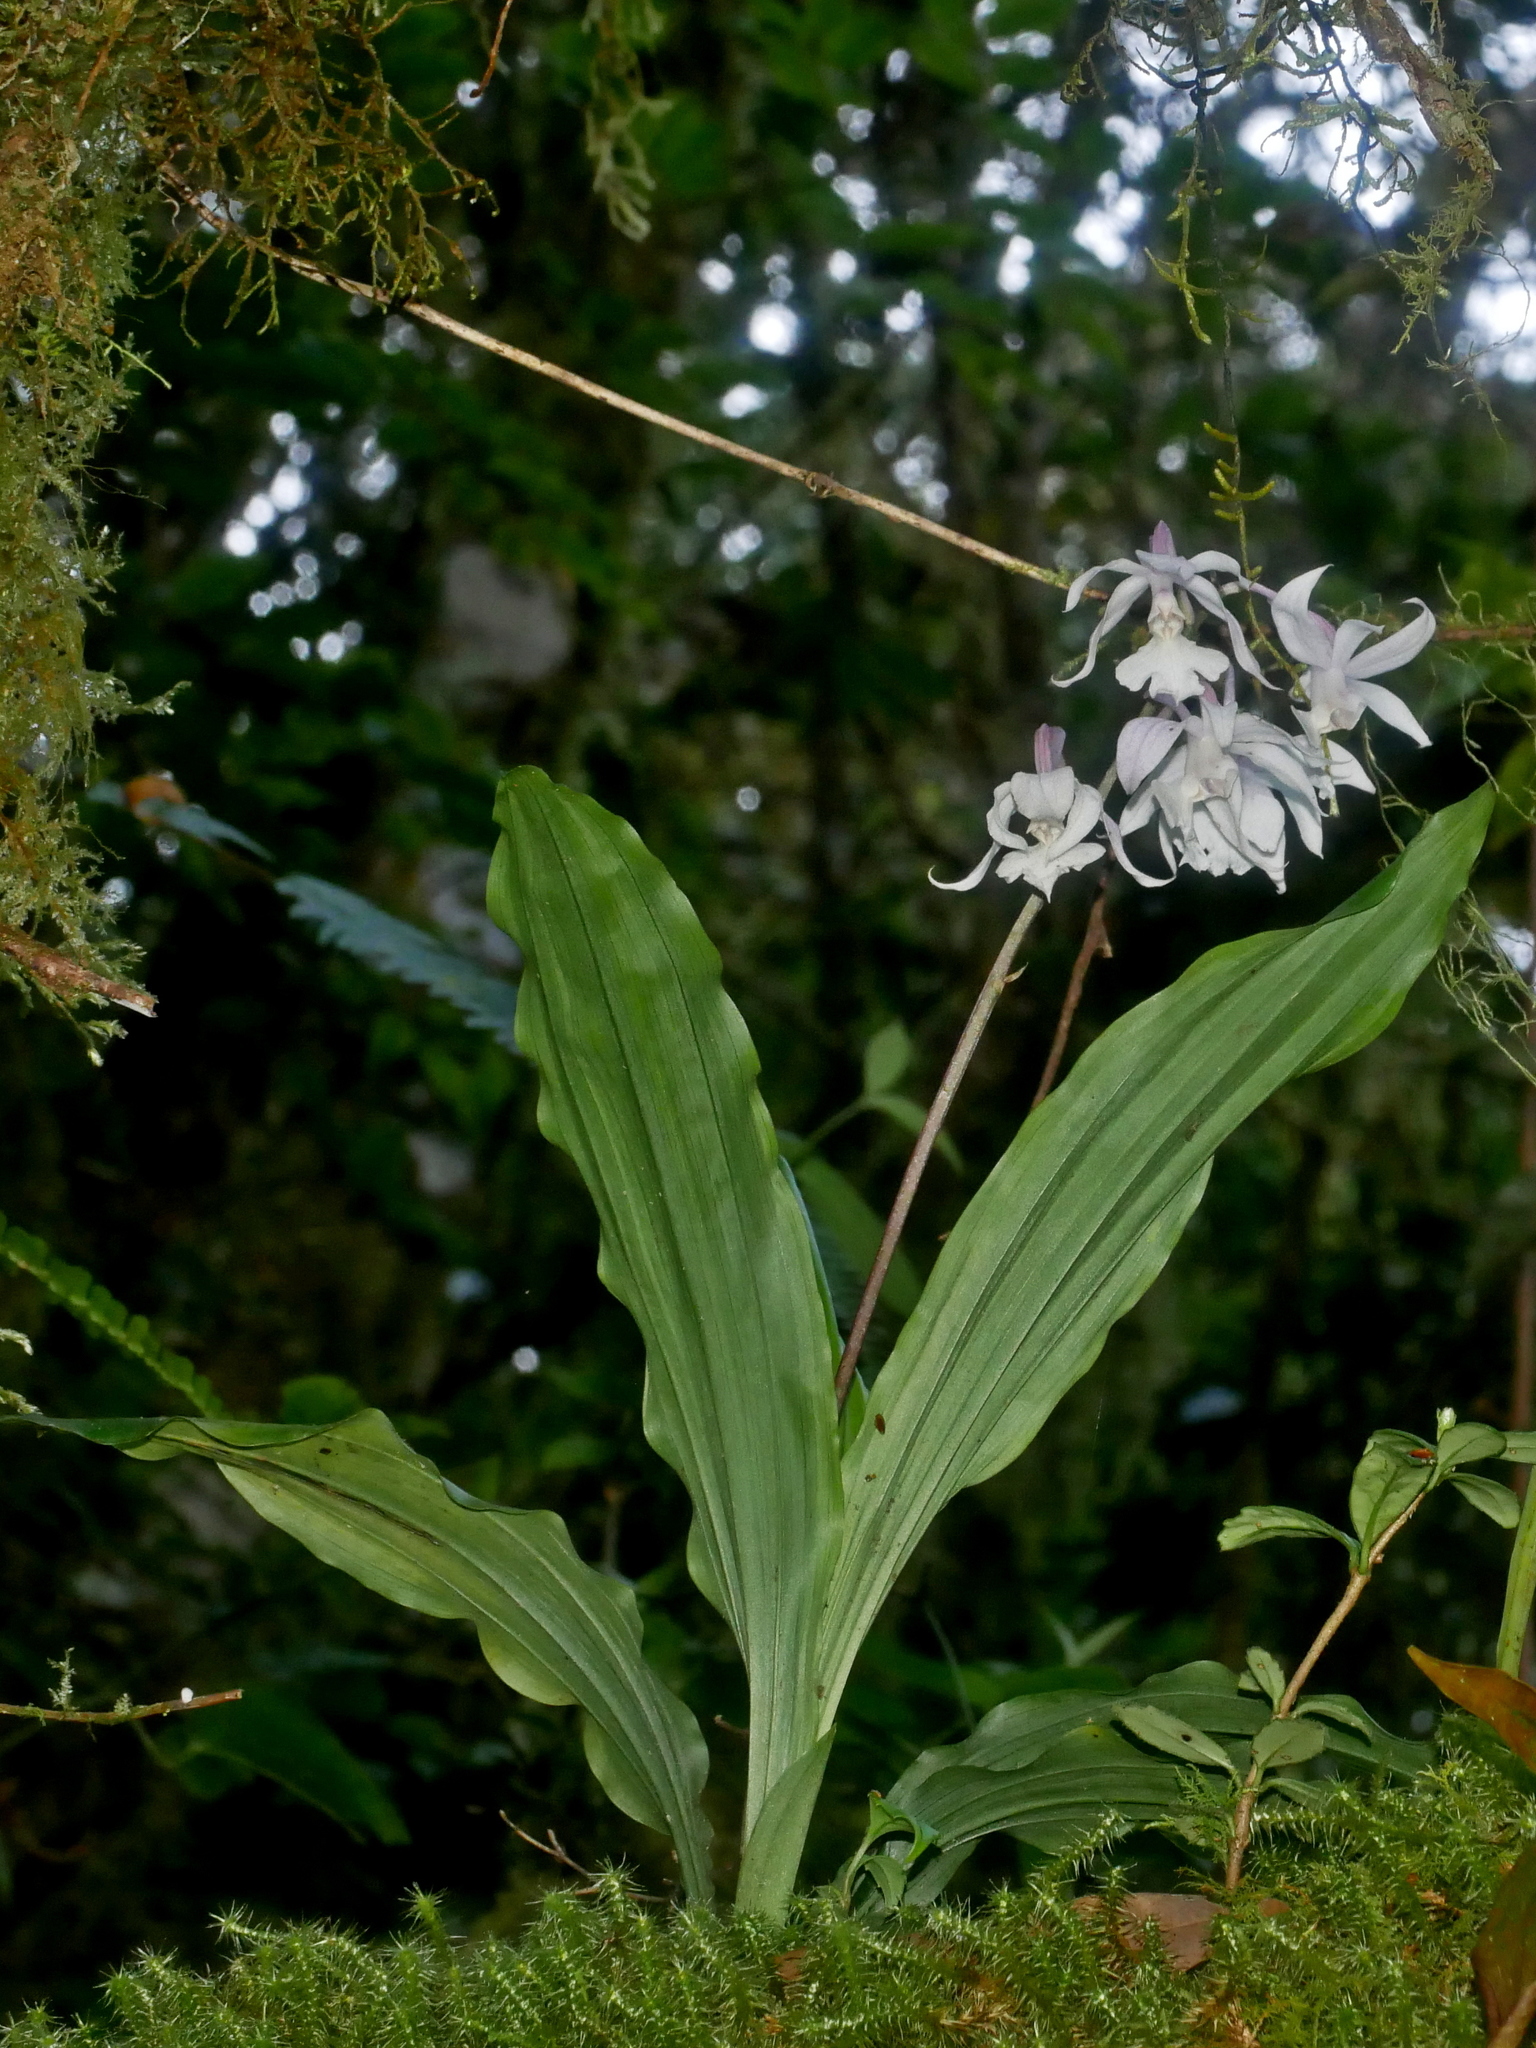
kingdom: Plantae
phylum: Tracheophyta
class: Liliopsida
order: Asparagales
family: Orchidaceae
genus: Calanthe
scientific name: Calanthe arisanensis
